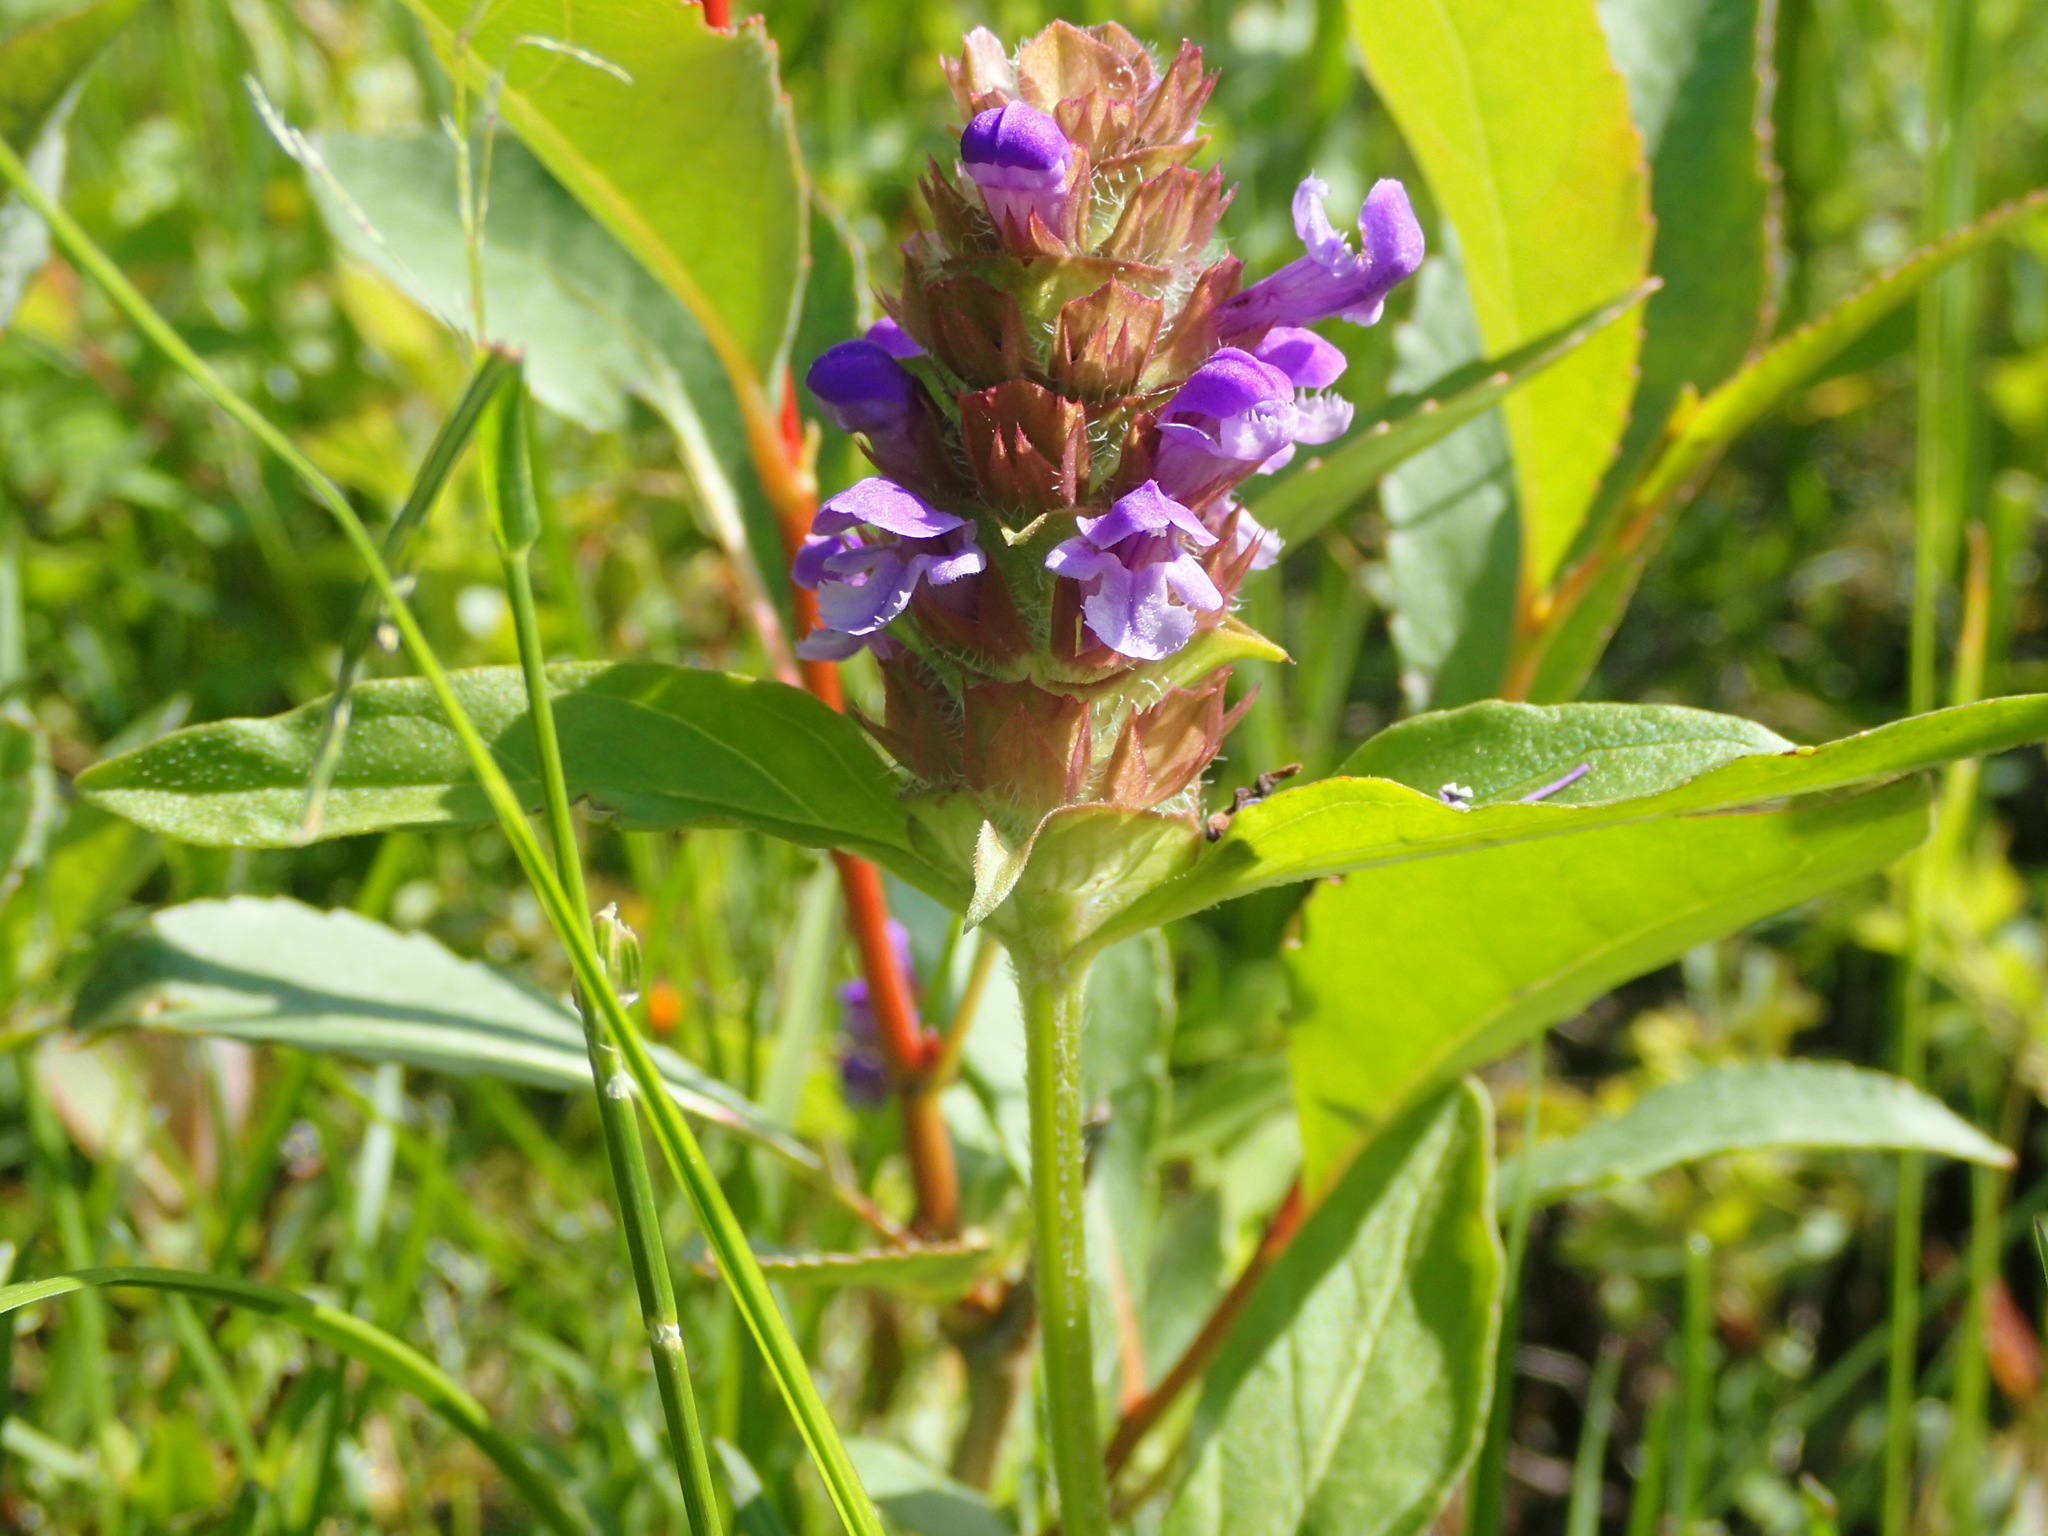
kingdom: Plantae
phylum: Tracheophyta
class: Magnoliopsida
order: Lamiales
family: Lamiaceae
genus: Prunella
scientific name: Prunella vulgaris
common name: Heal-all
